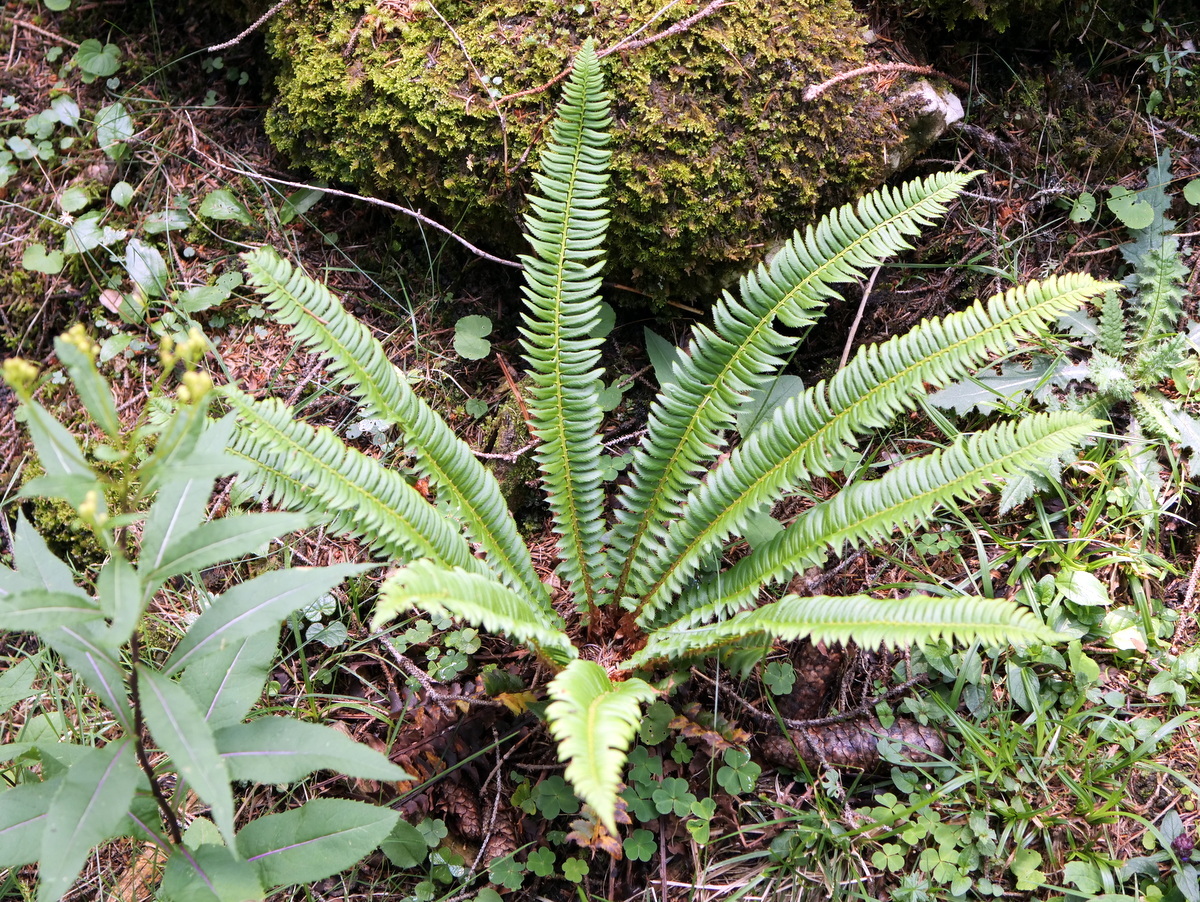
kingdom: Plantae
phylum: Tracheophyta
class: Polypodiopsida
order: Polypodiales
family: Dryopteridaceae
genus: Polystichum
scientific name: Polystichum lonchitis
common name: Holly fern
